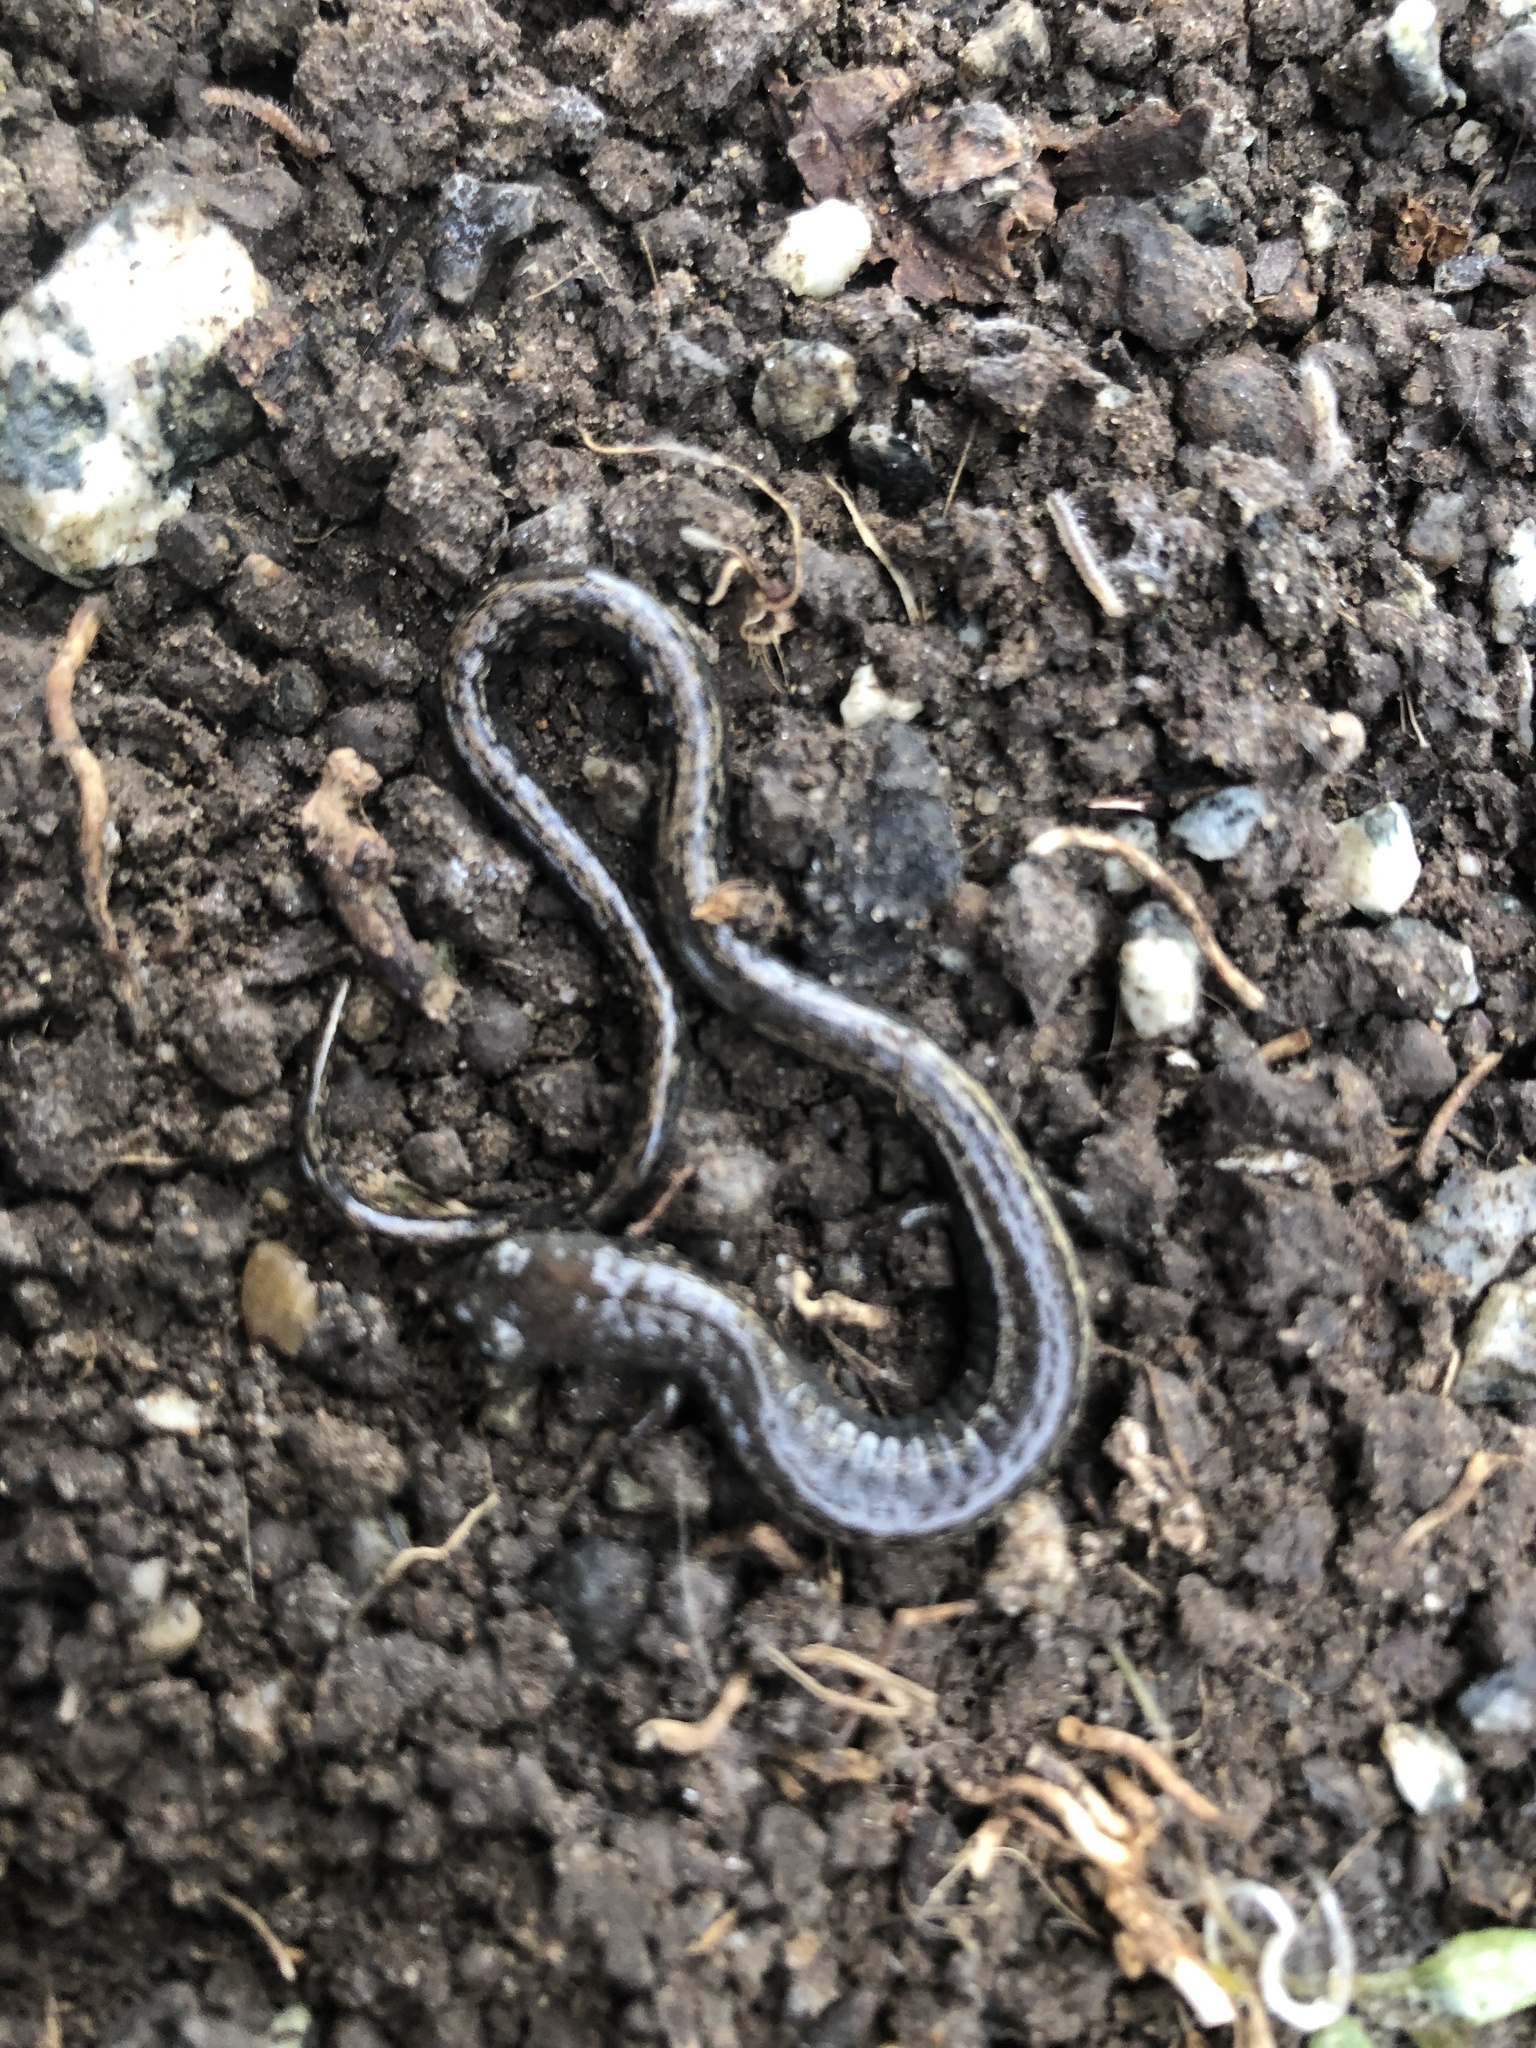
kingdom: Animalia
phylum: Chordata
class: Amphibia
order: Caudata
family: Plethodontidae
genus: Batrachoseps
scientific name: Batrachoseps gavilanensis
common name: Gabilan mountains slender salamander
